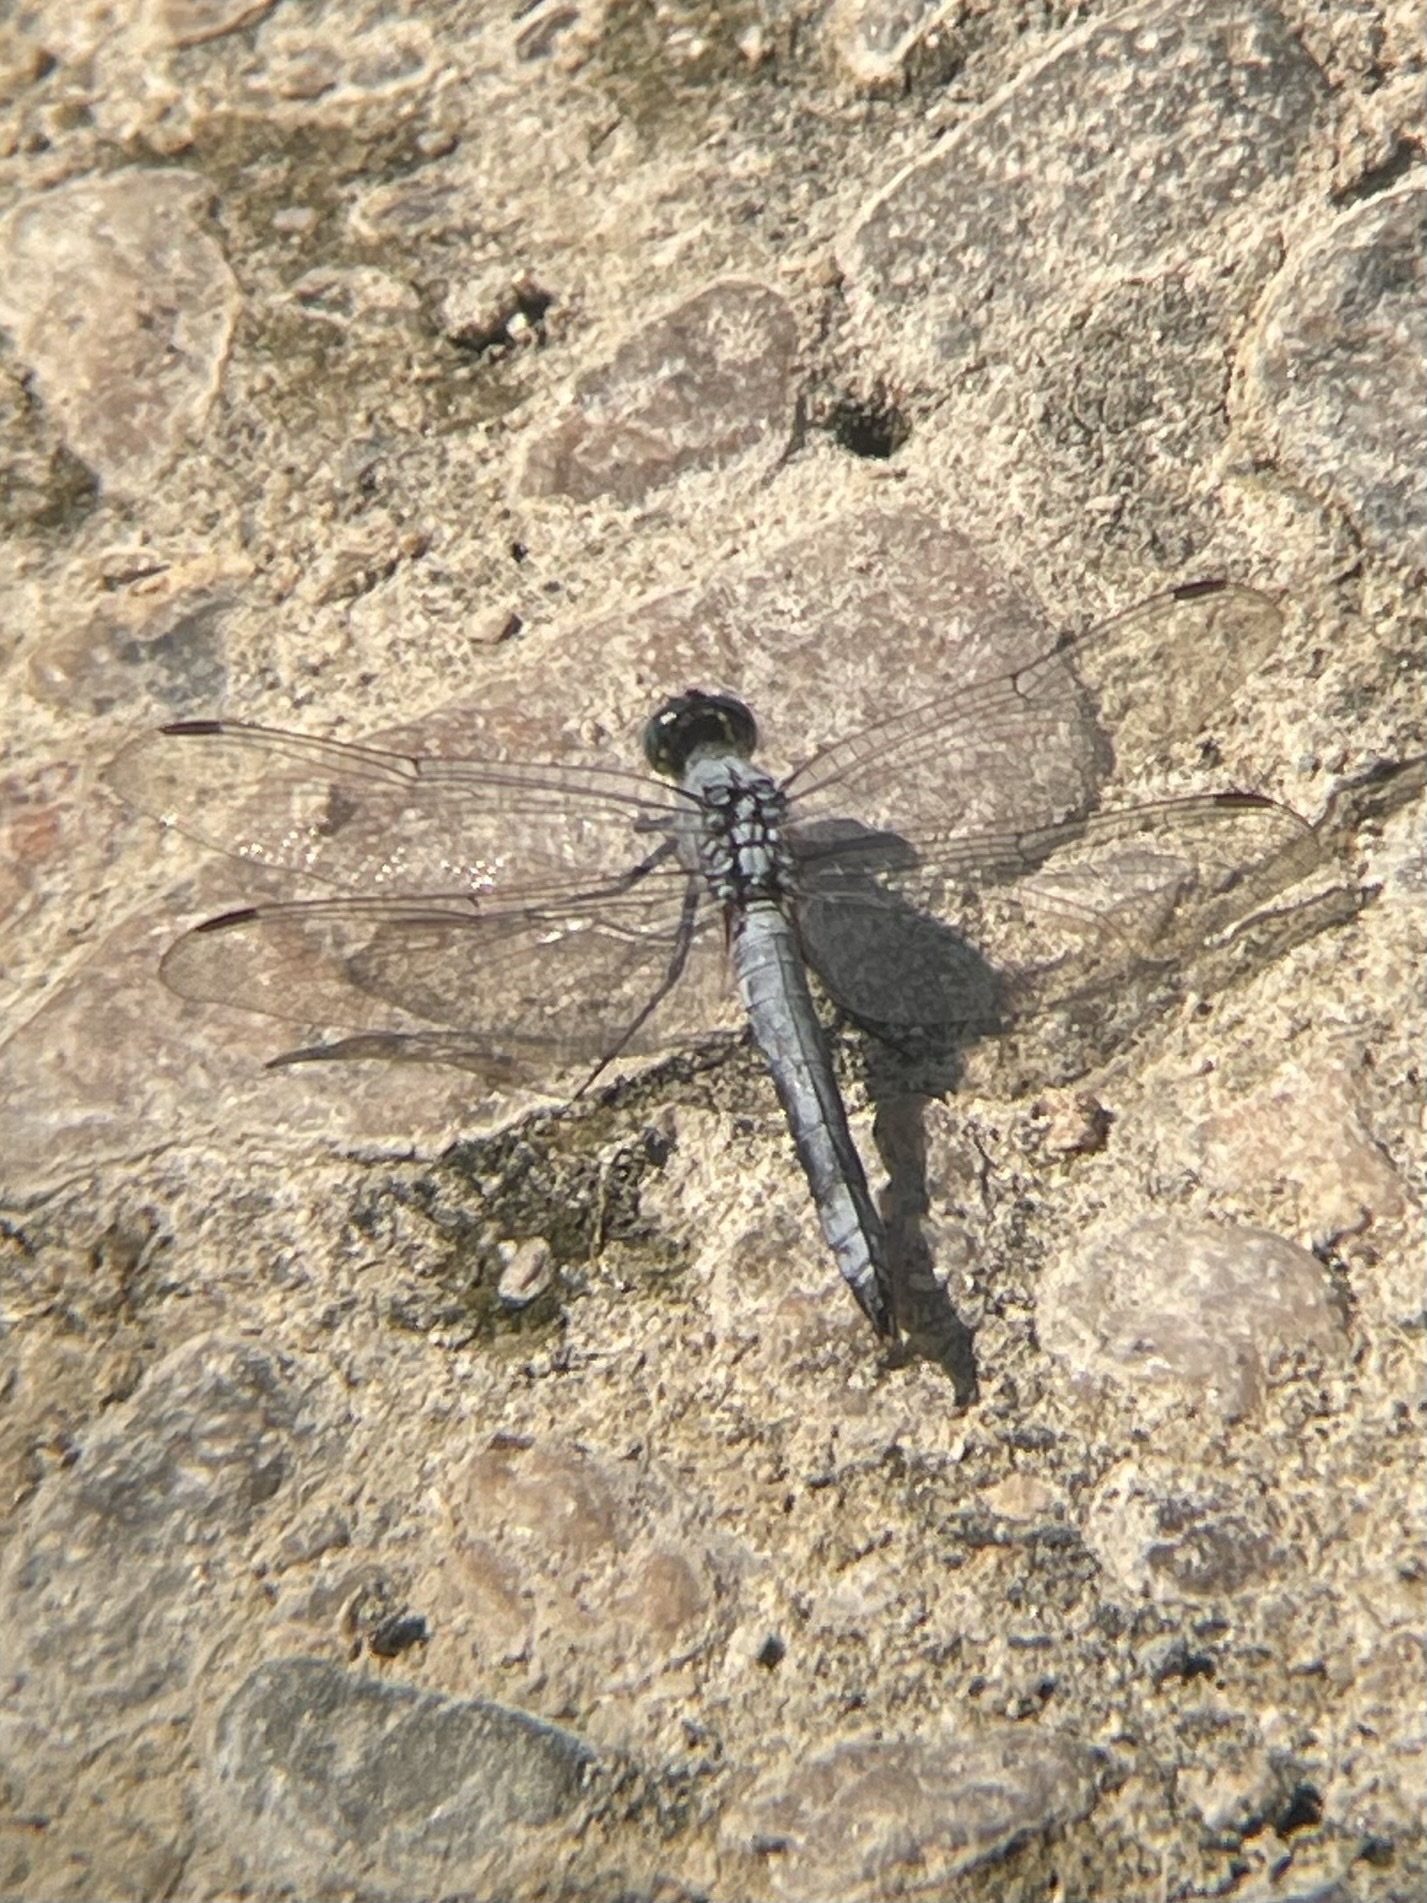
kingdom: Animalia
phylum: Arthropoda
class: Insecta
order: Odonata
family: Libellulidae
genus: Erythemis
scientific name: Erythemis collocata
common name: Western pondhawk
